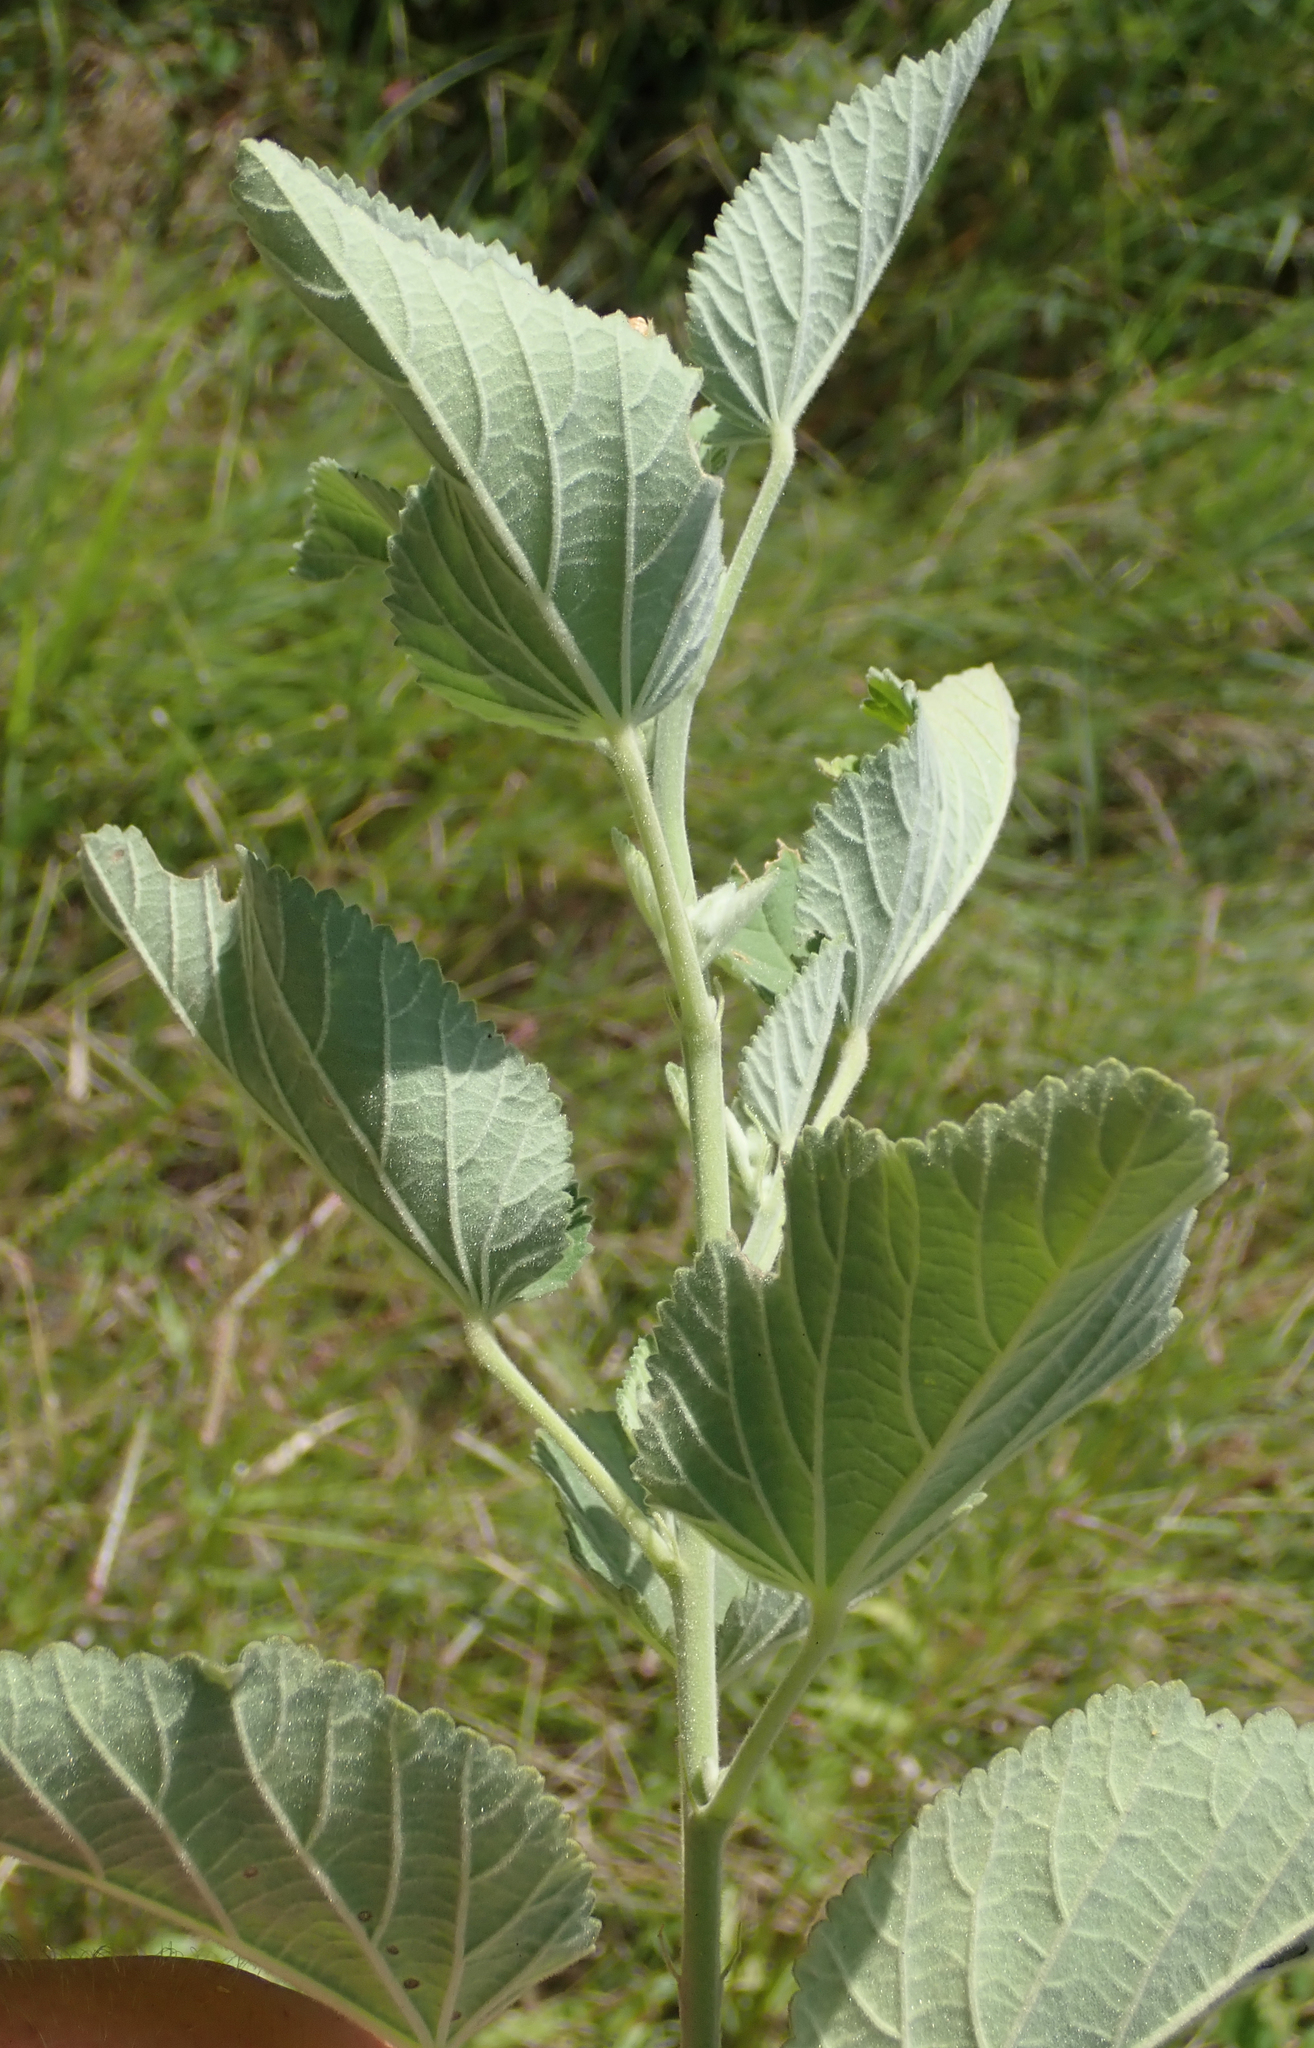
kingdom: Plantae
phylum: Tracheophyta
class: Magnoliopsida
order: Malvales
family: Malvaceae
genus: Sida
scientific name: Sida cordifolia
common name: Ilima
